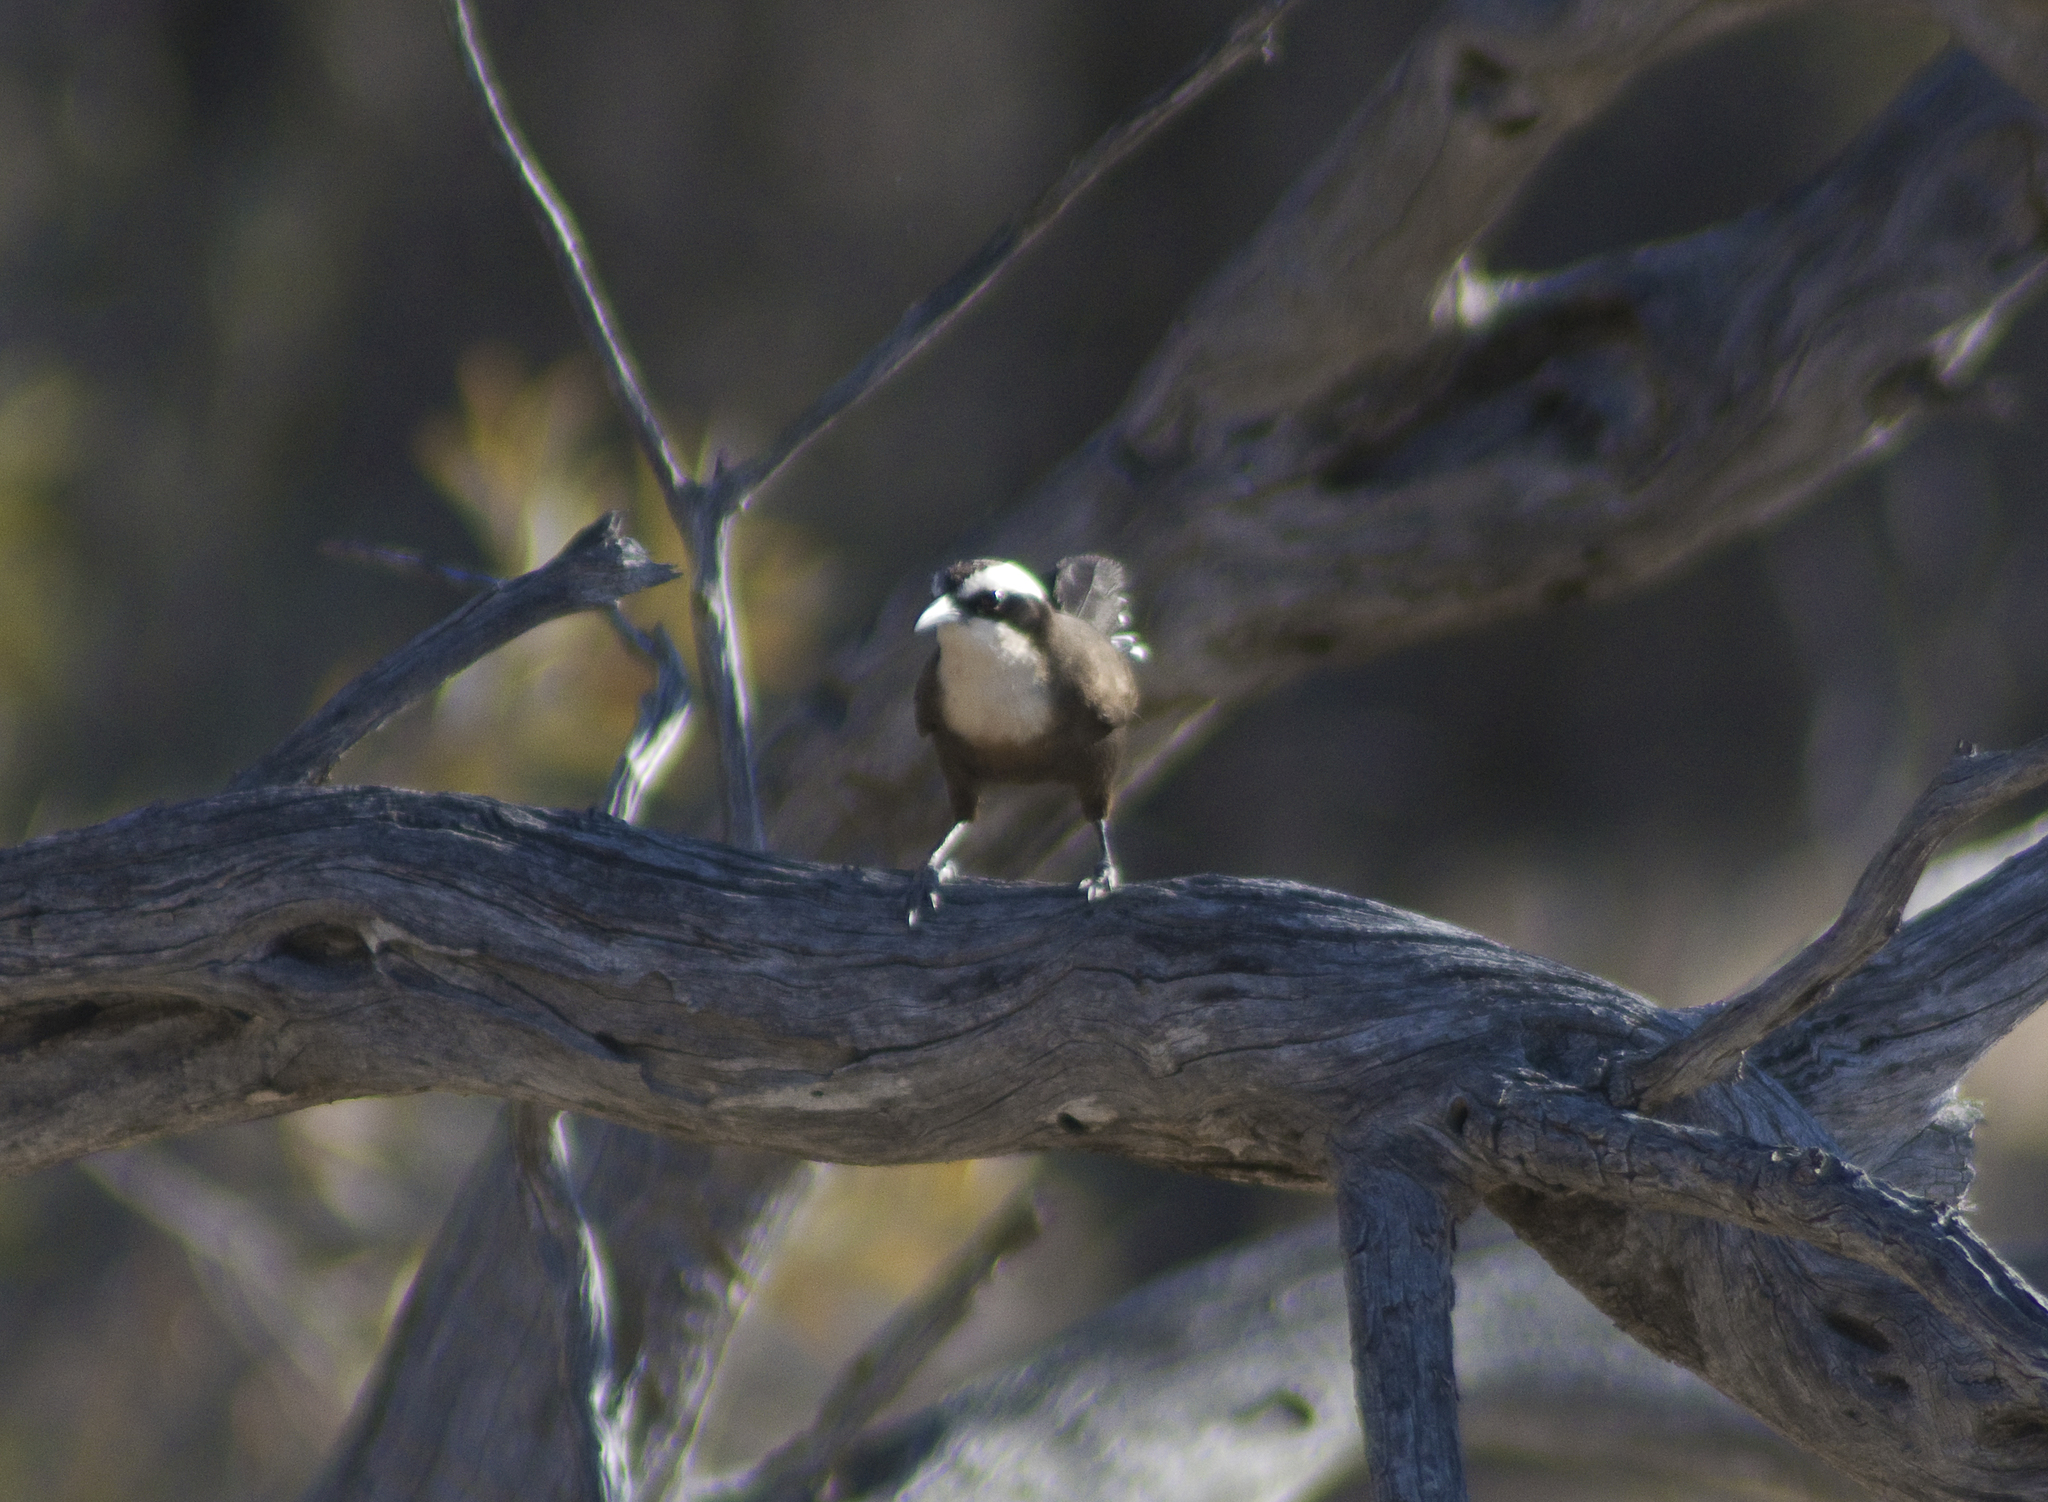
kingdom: Animalia
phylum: Chordata
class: Aves
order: Passeriformes
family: Pomatostomidae
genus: Pomatostomus
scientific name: Pomatostomus halli
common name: Hall's babbler
